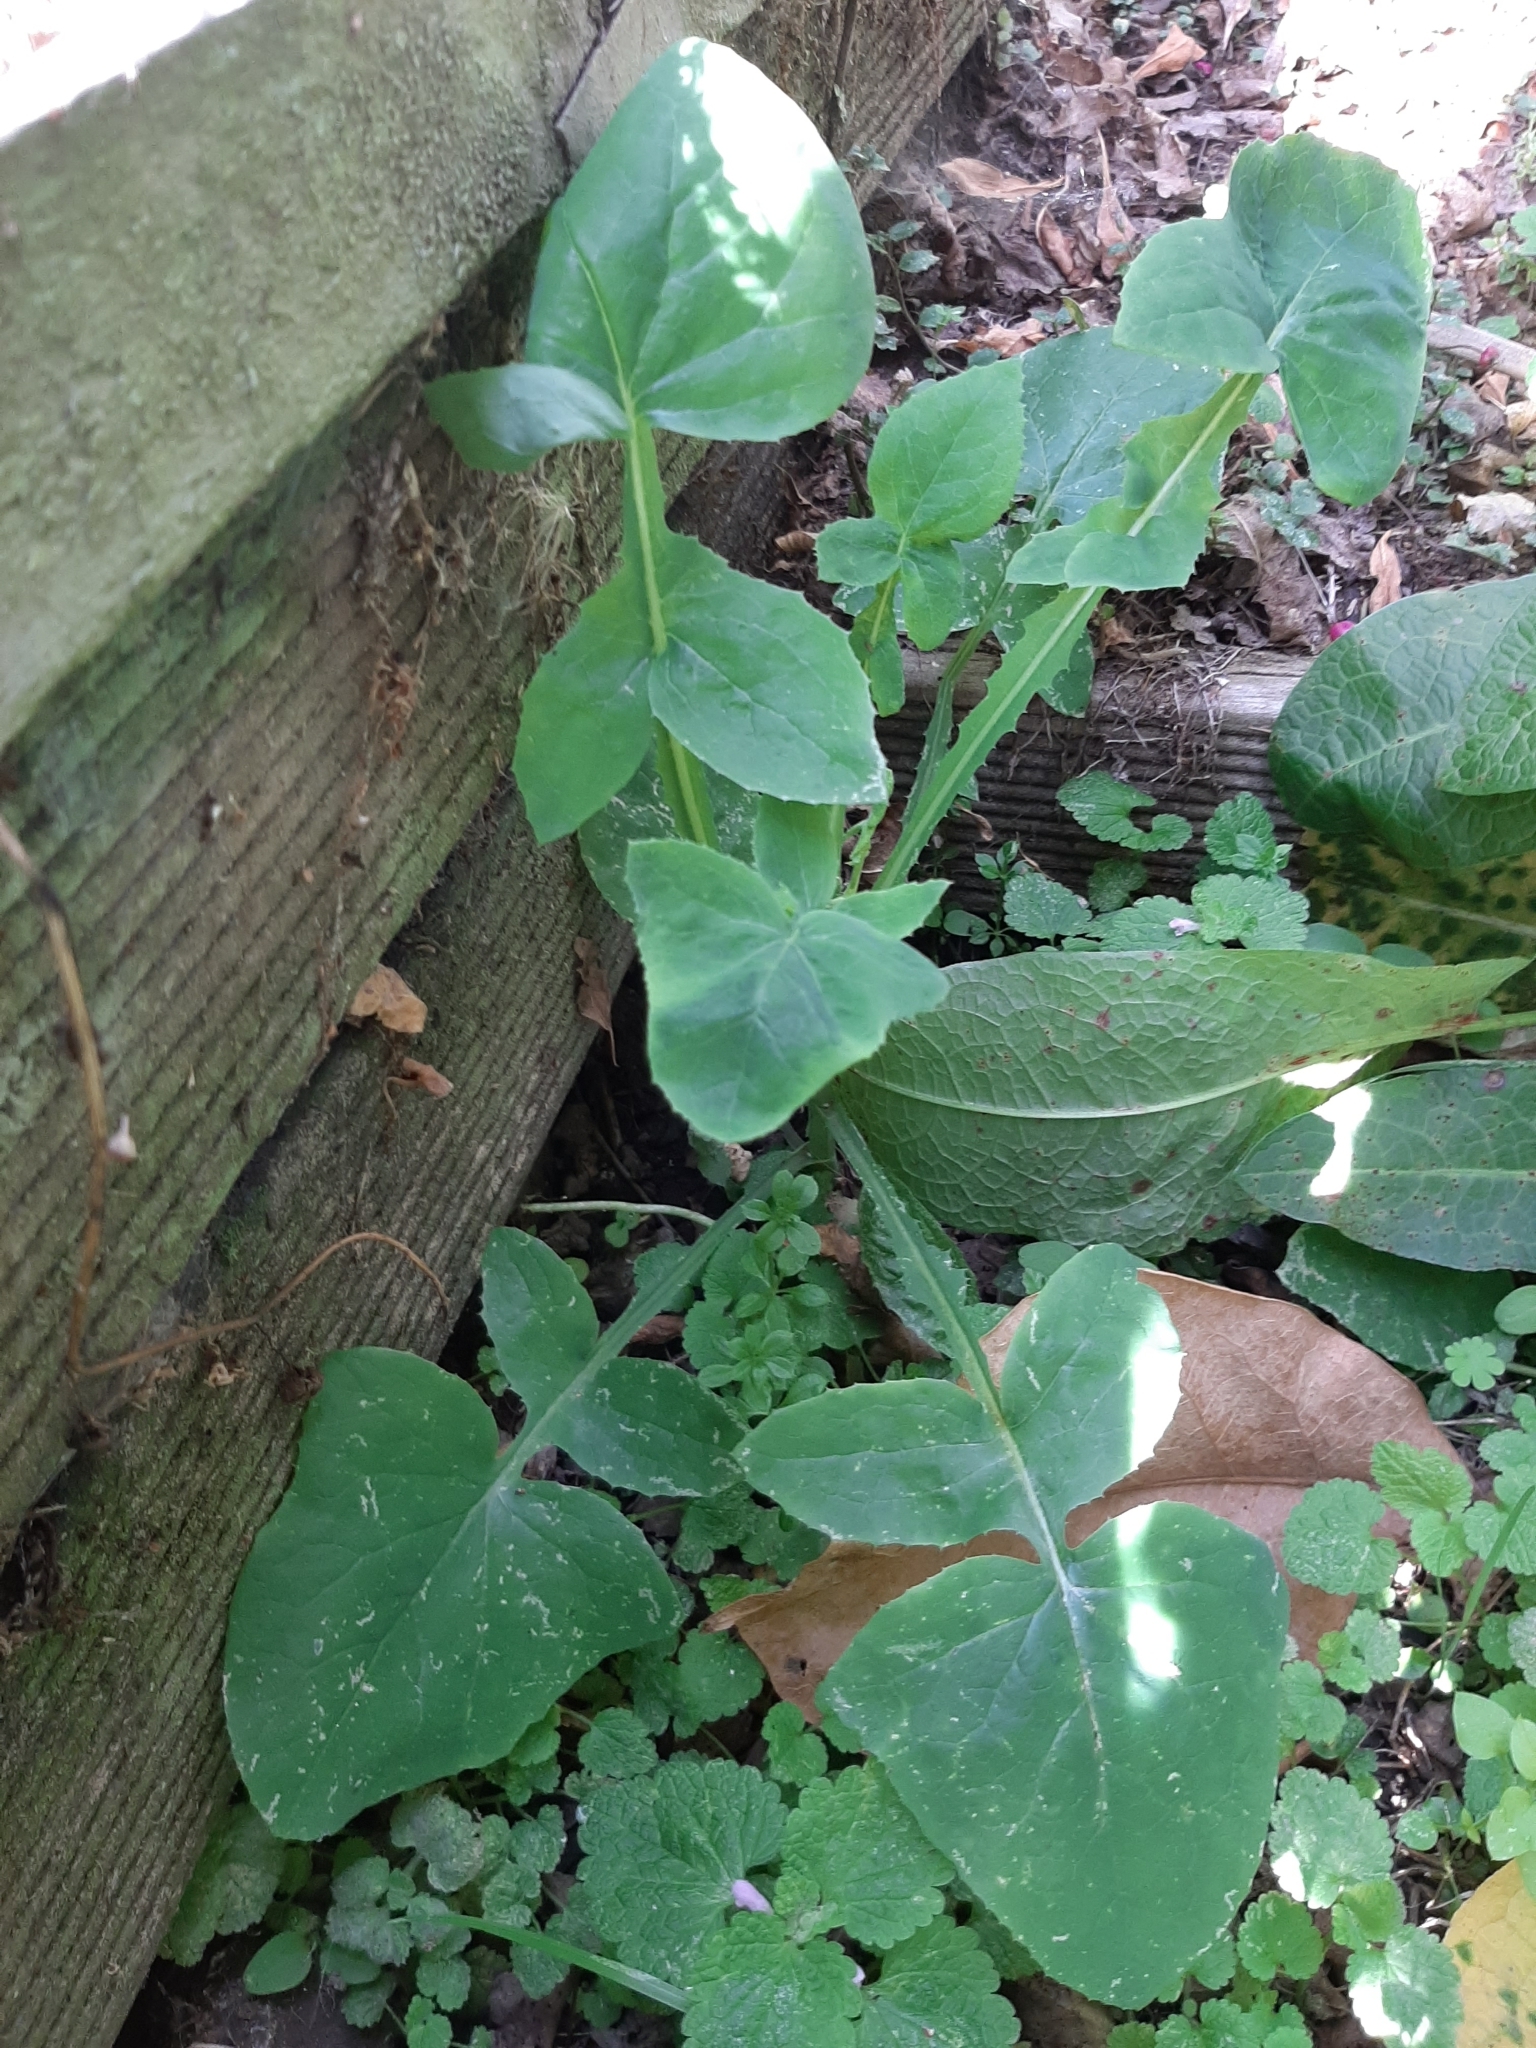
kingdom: Plantae
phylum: Tracheophyta
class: Magnoliopsida
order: Asterales
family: Asteraceae
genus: Sonchus
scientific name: Sonchus oleraceus
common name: Common sowthistle
